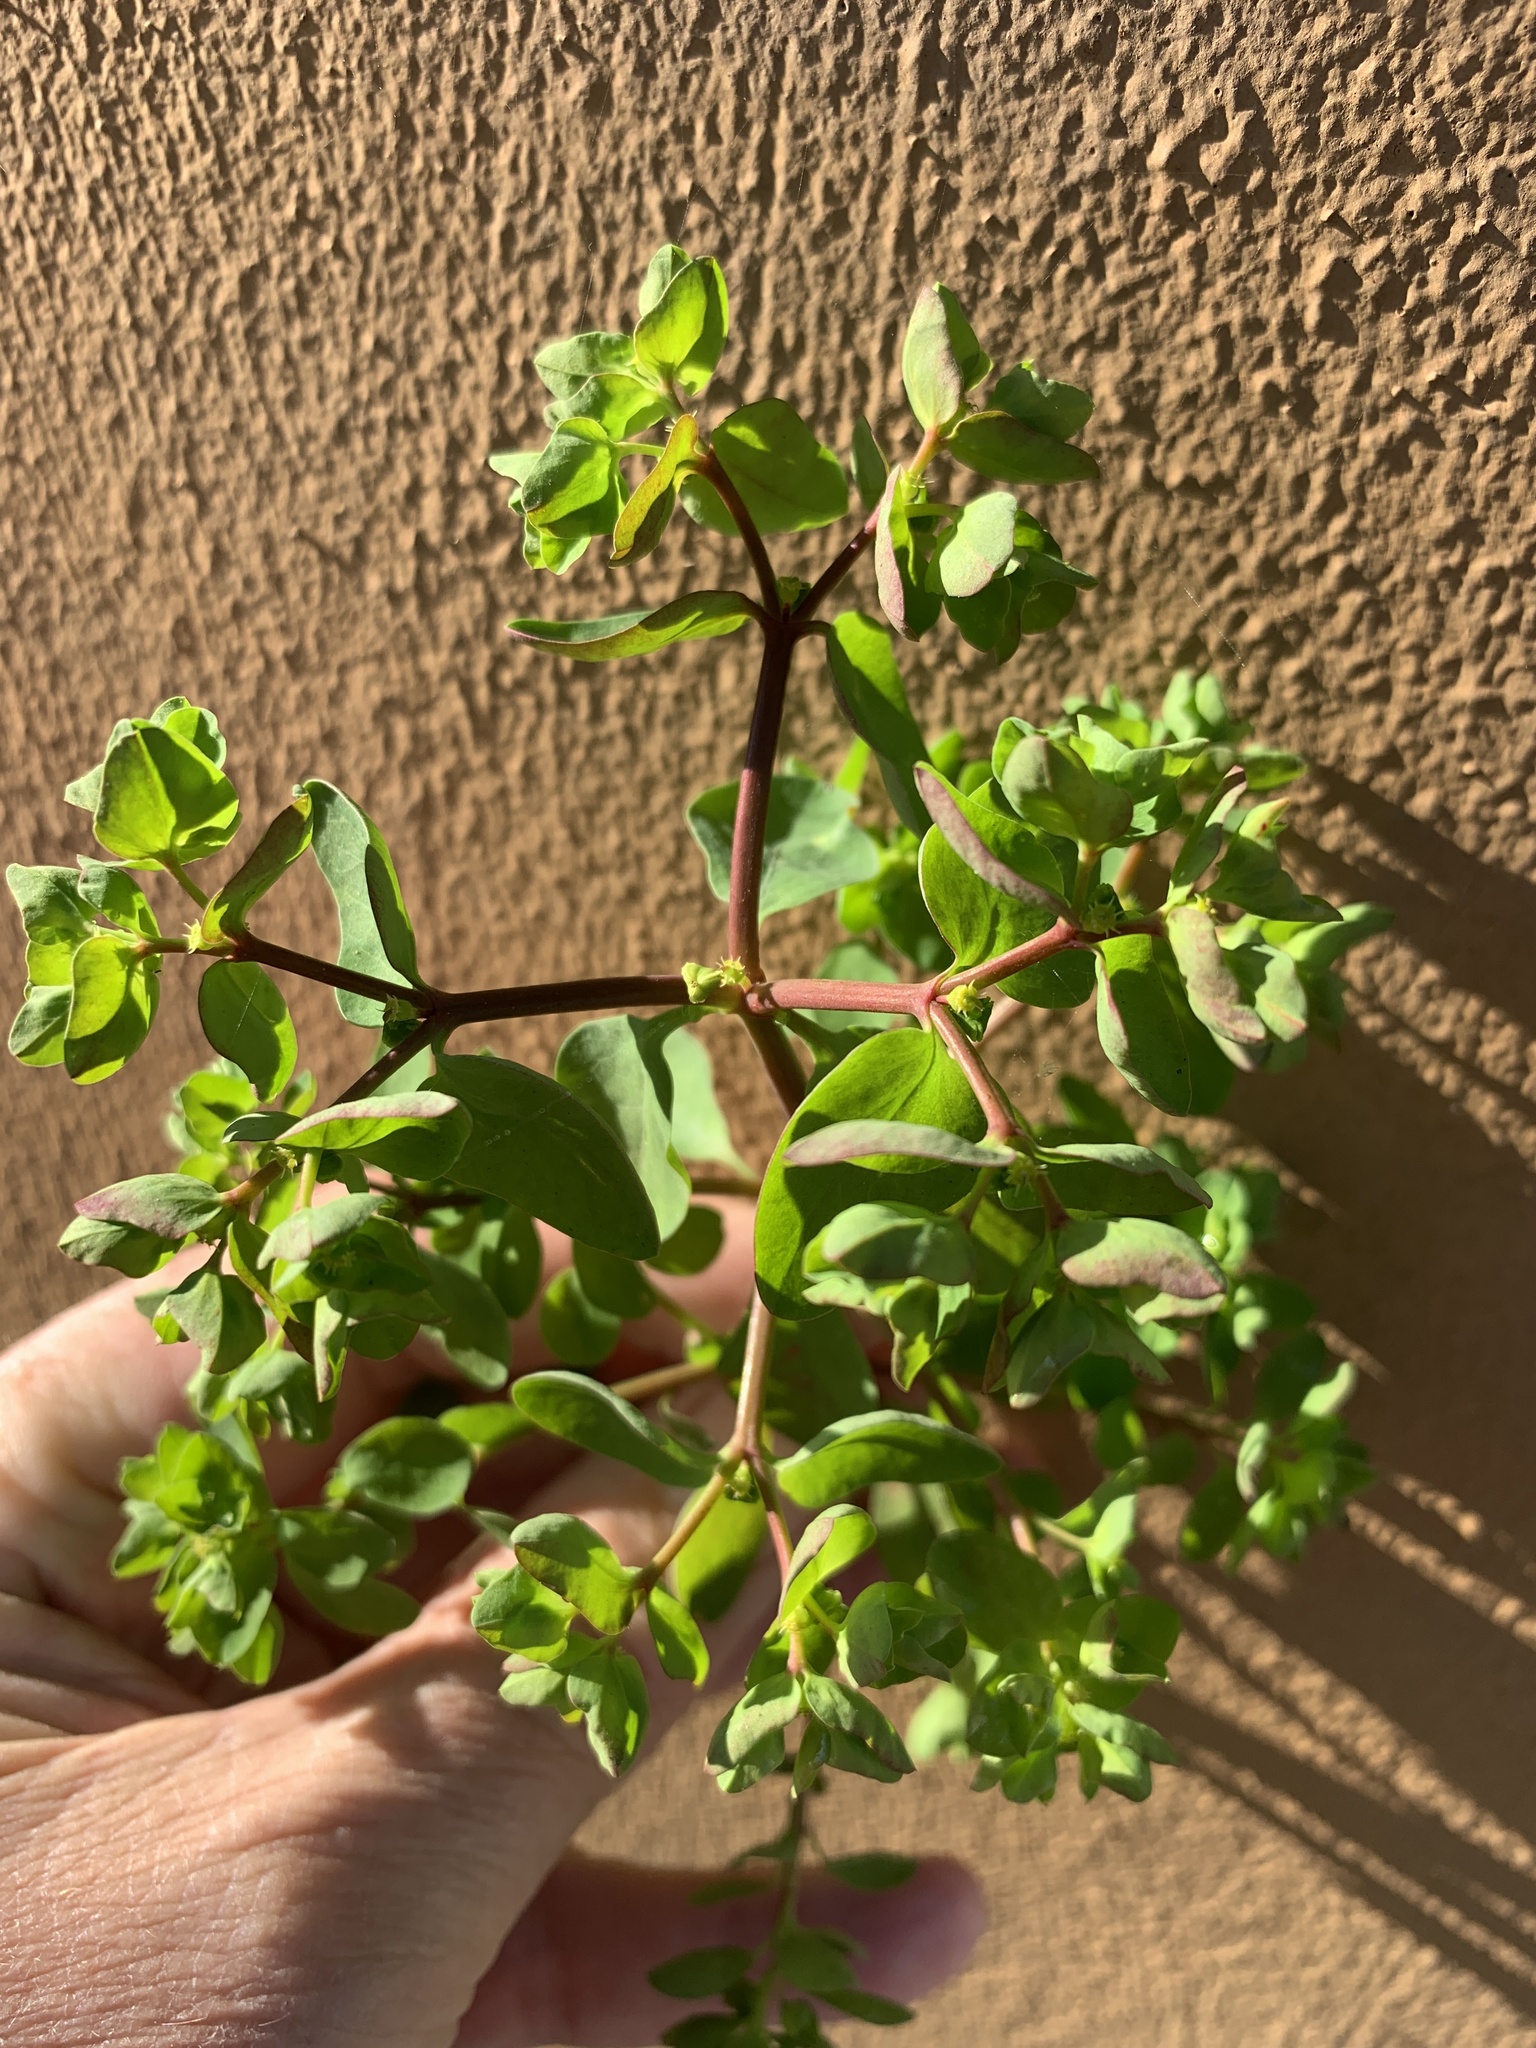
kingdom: Plantae
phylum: Tracheophyta
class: Magnoliopsida
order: Malpighiales
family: Euphorbiaceae
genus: Euphorbia
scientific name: Euphorbia peplus
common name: Petty spurge
